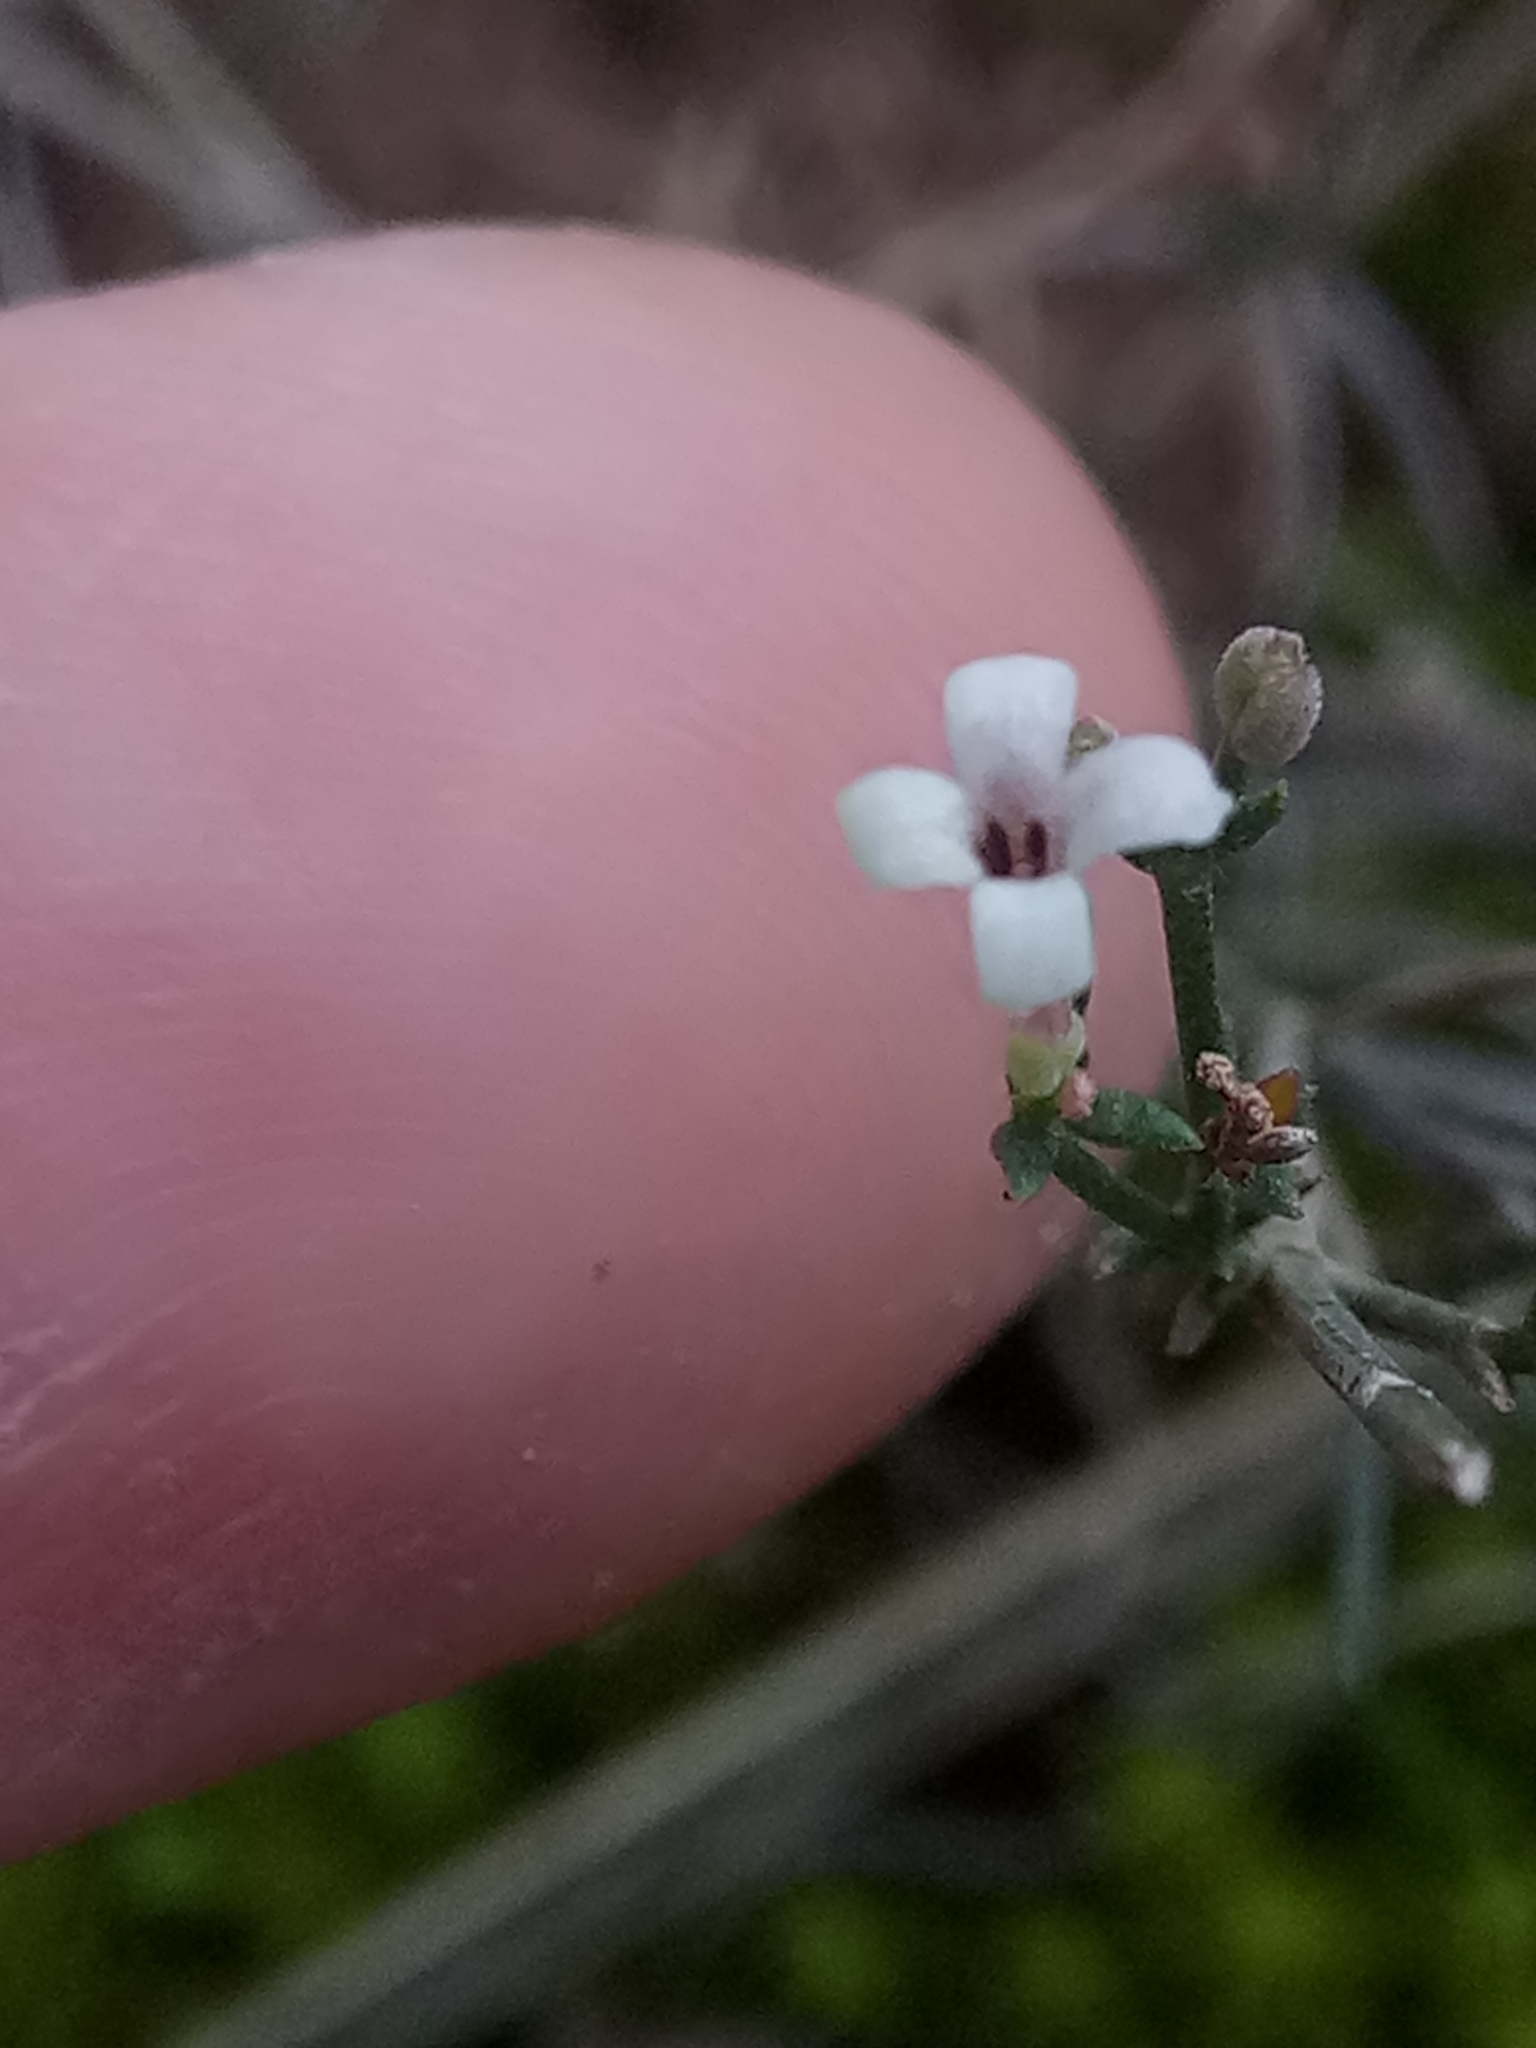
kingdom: Plantae
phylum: Tracheophyta
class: Magnoliopsida
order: Gentianales
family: Rubiaceae
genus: Cynanchica
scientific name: Cynanchica aristata
